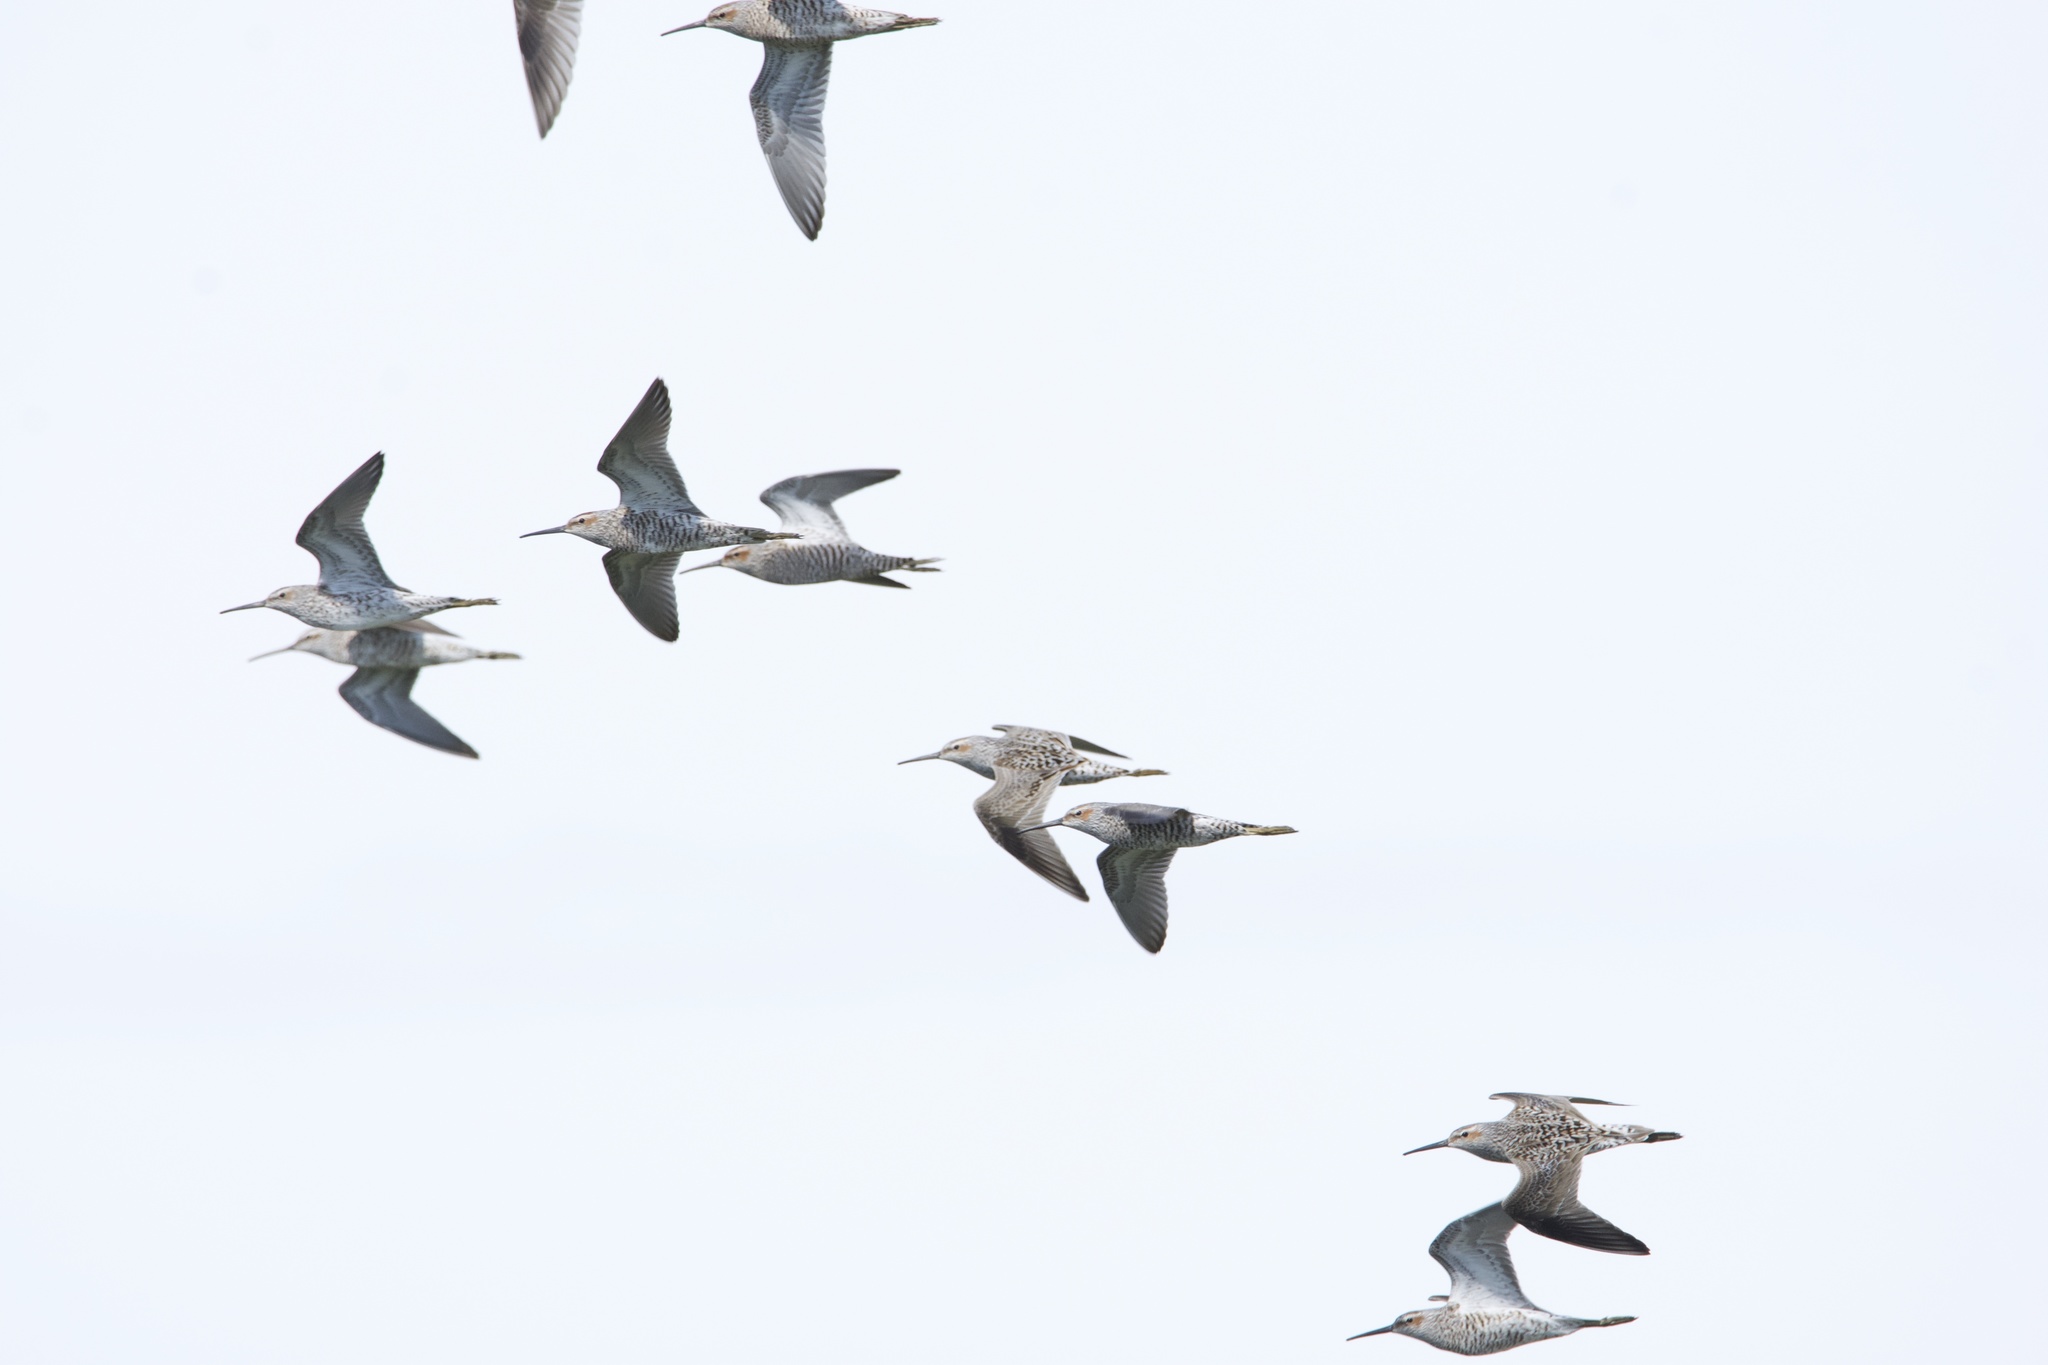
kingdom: Animalia
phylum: Chordata
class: Aves
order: Charadriiformes
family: Scolopacidae
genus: Calidris
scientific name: Calidris himantopus
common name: Stilt sandpiper
